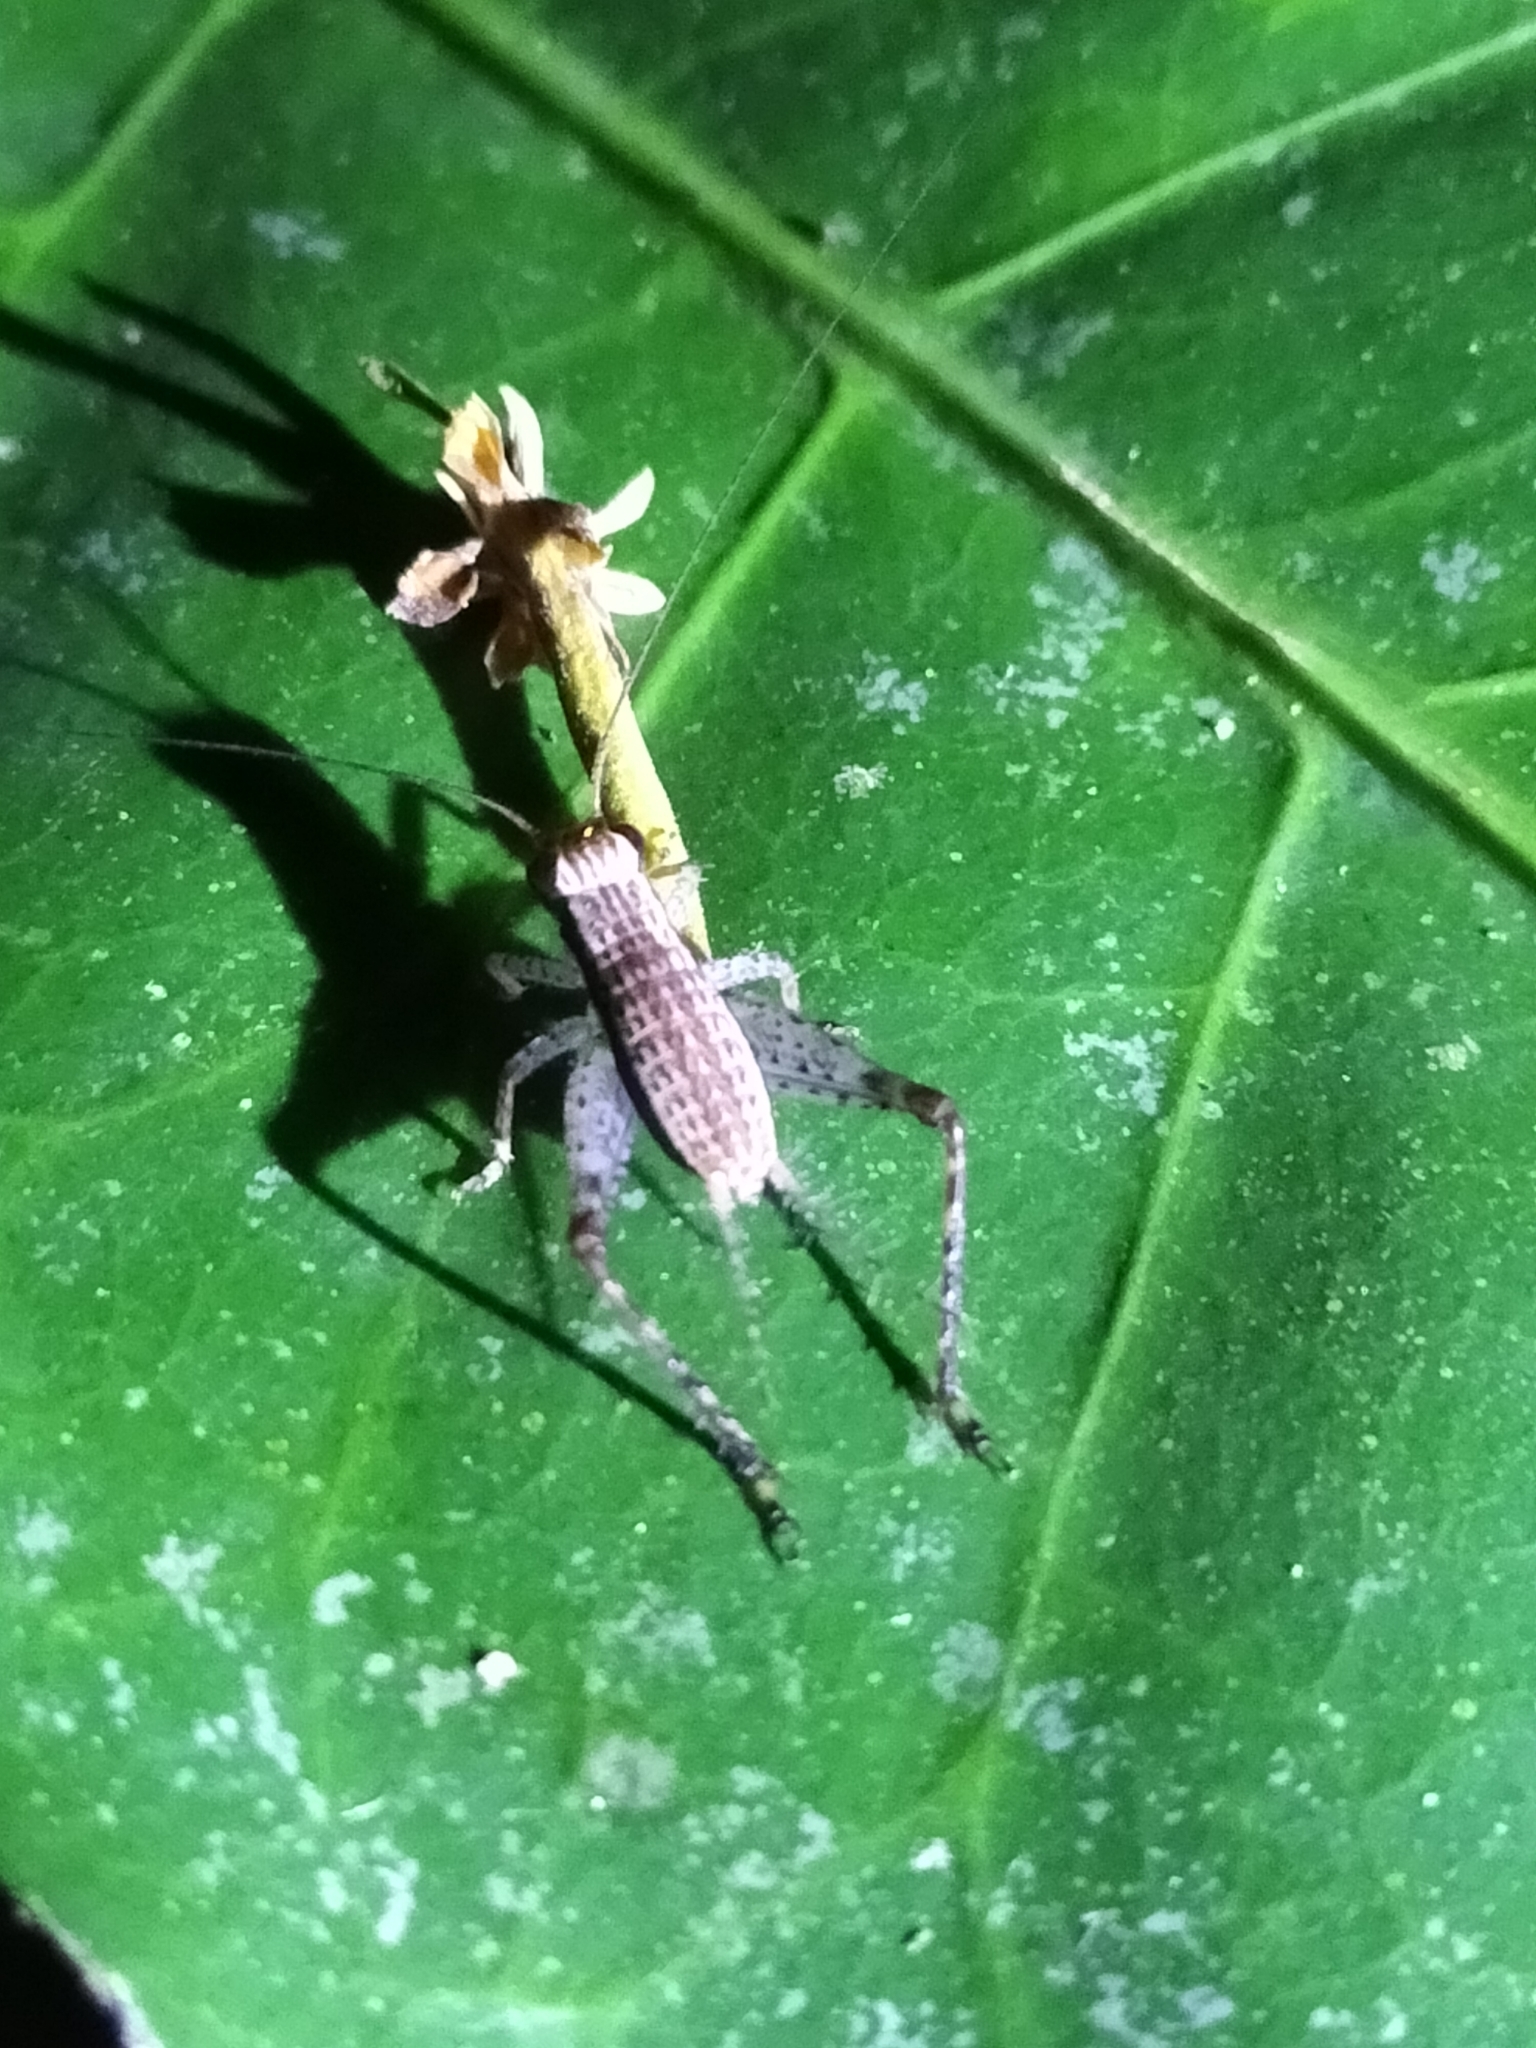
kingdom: Animalia
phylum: Arthropoda
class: Insecta
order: Orthoptera
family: Gryllidae
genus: Cardiodactylus
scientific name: Cardiodactylus novaeguineae
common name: Sad cricket
